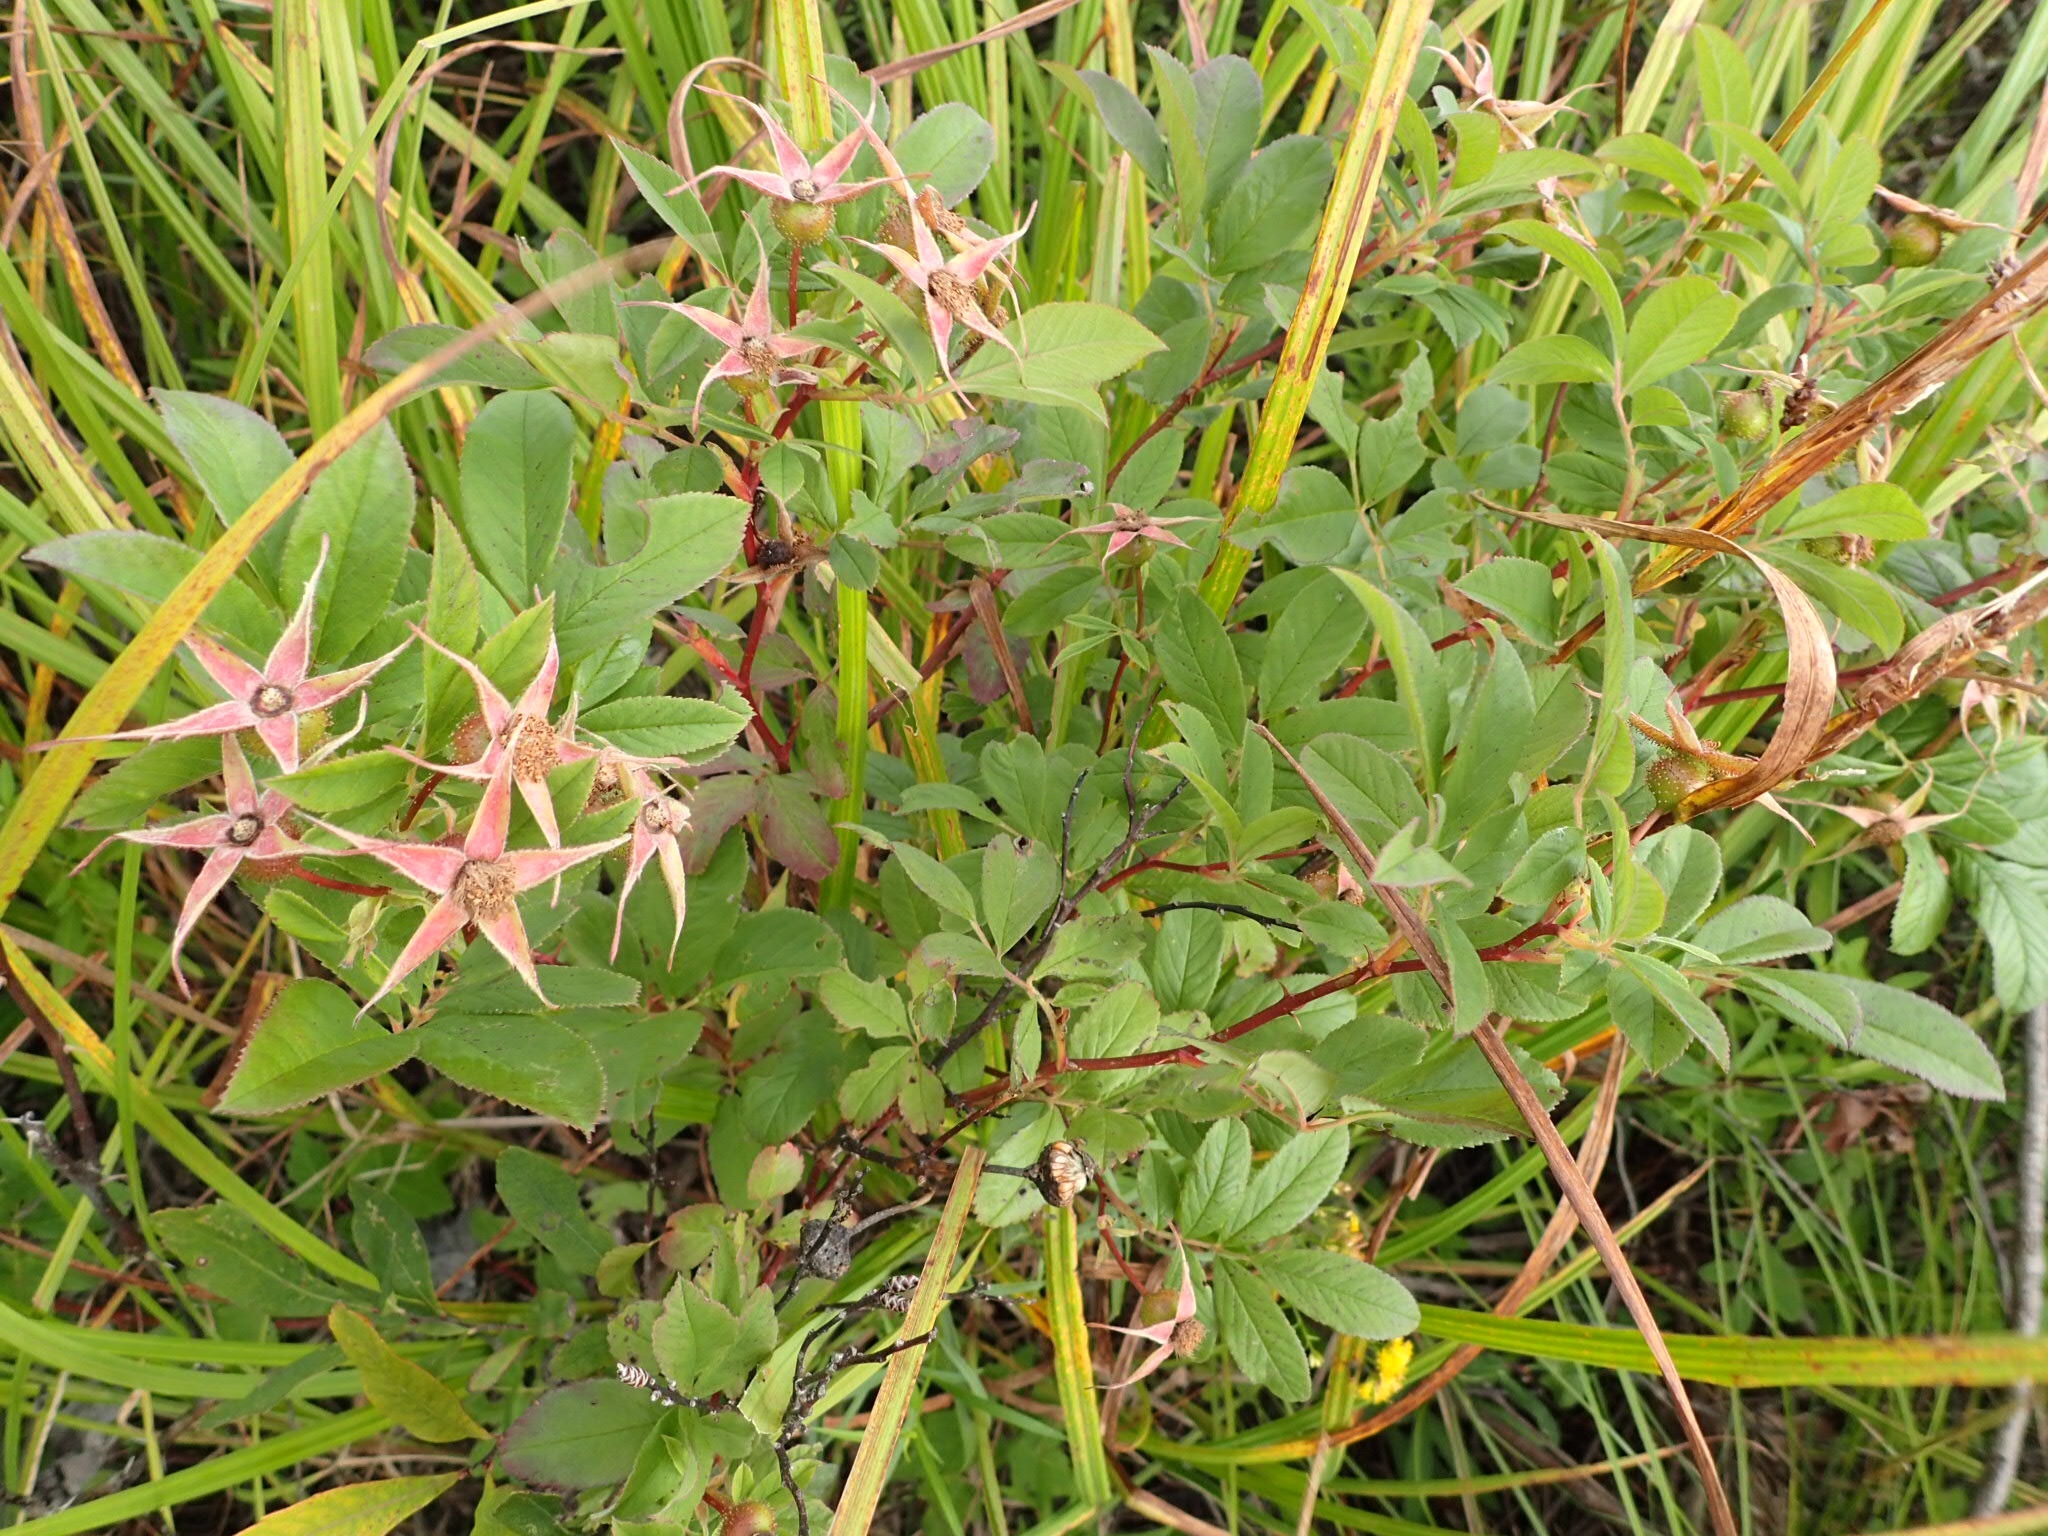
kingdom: Plantae
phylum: Tracheophyta
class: Magnoliopsida
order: Rosales
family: Rosaceae
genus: Rosa
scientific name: Rosa palustris
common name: Swamp rose
